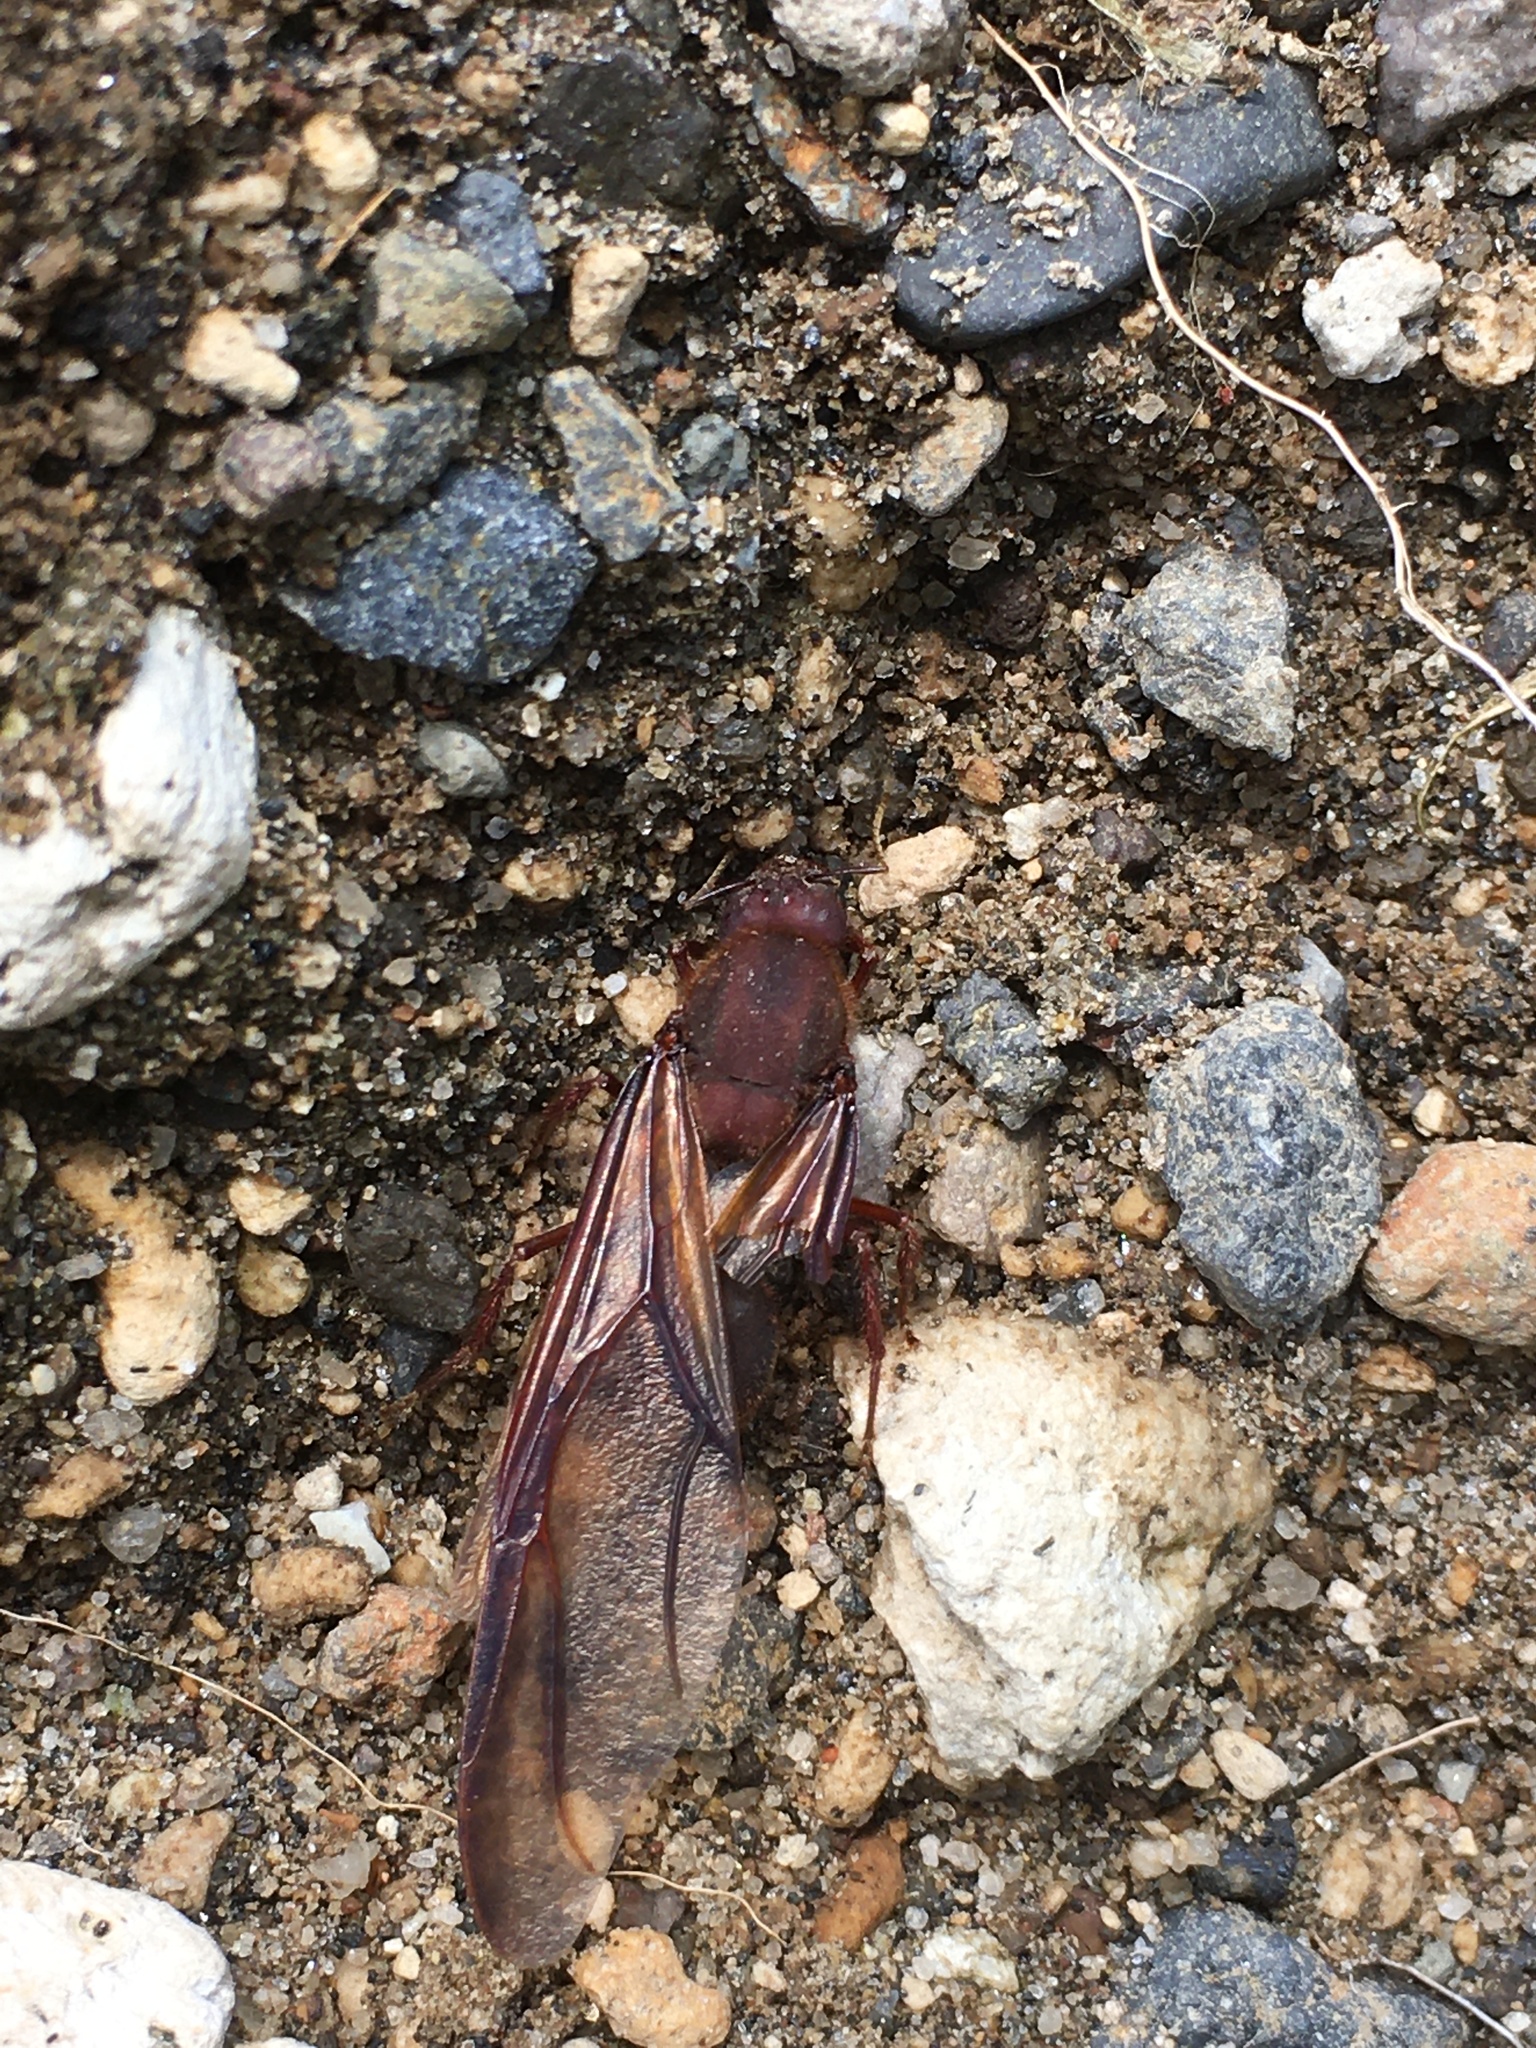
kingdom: Animalia
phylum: Arthropoda
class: Insecta
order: Hymenoptera
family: Formicidae
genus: Atta
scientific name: Atta
